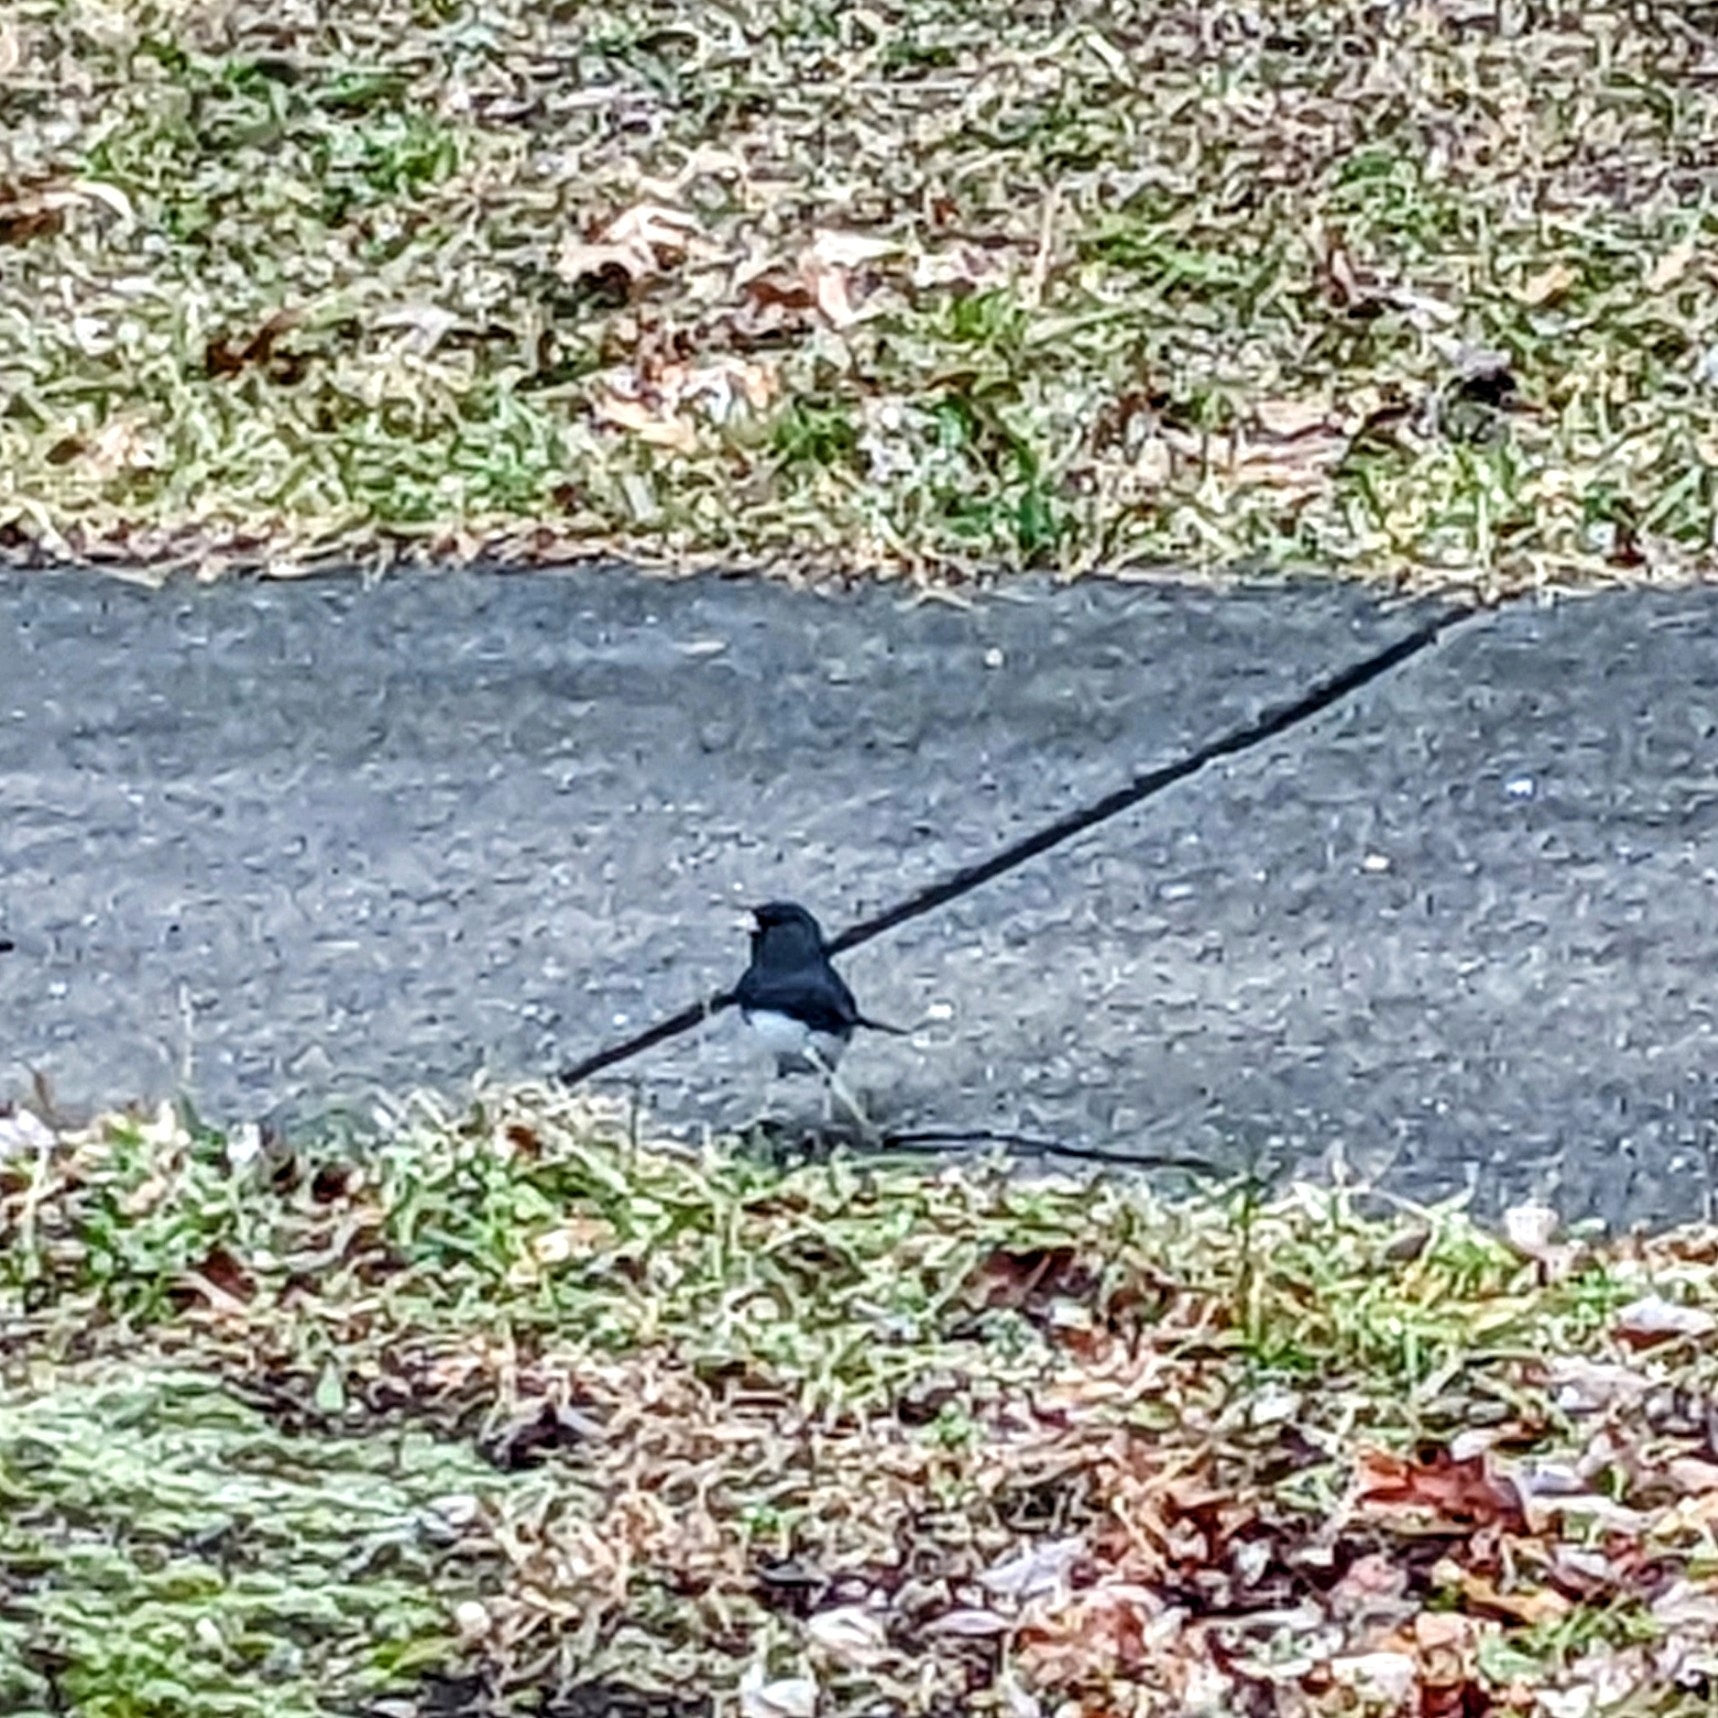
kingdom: Animalia
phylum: Chordata
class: Aves
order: Passeriformes
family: Passerellidae
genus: Junco
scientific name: Junco hyemalis
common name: Dark-eyed junco
